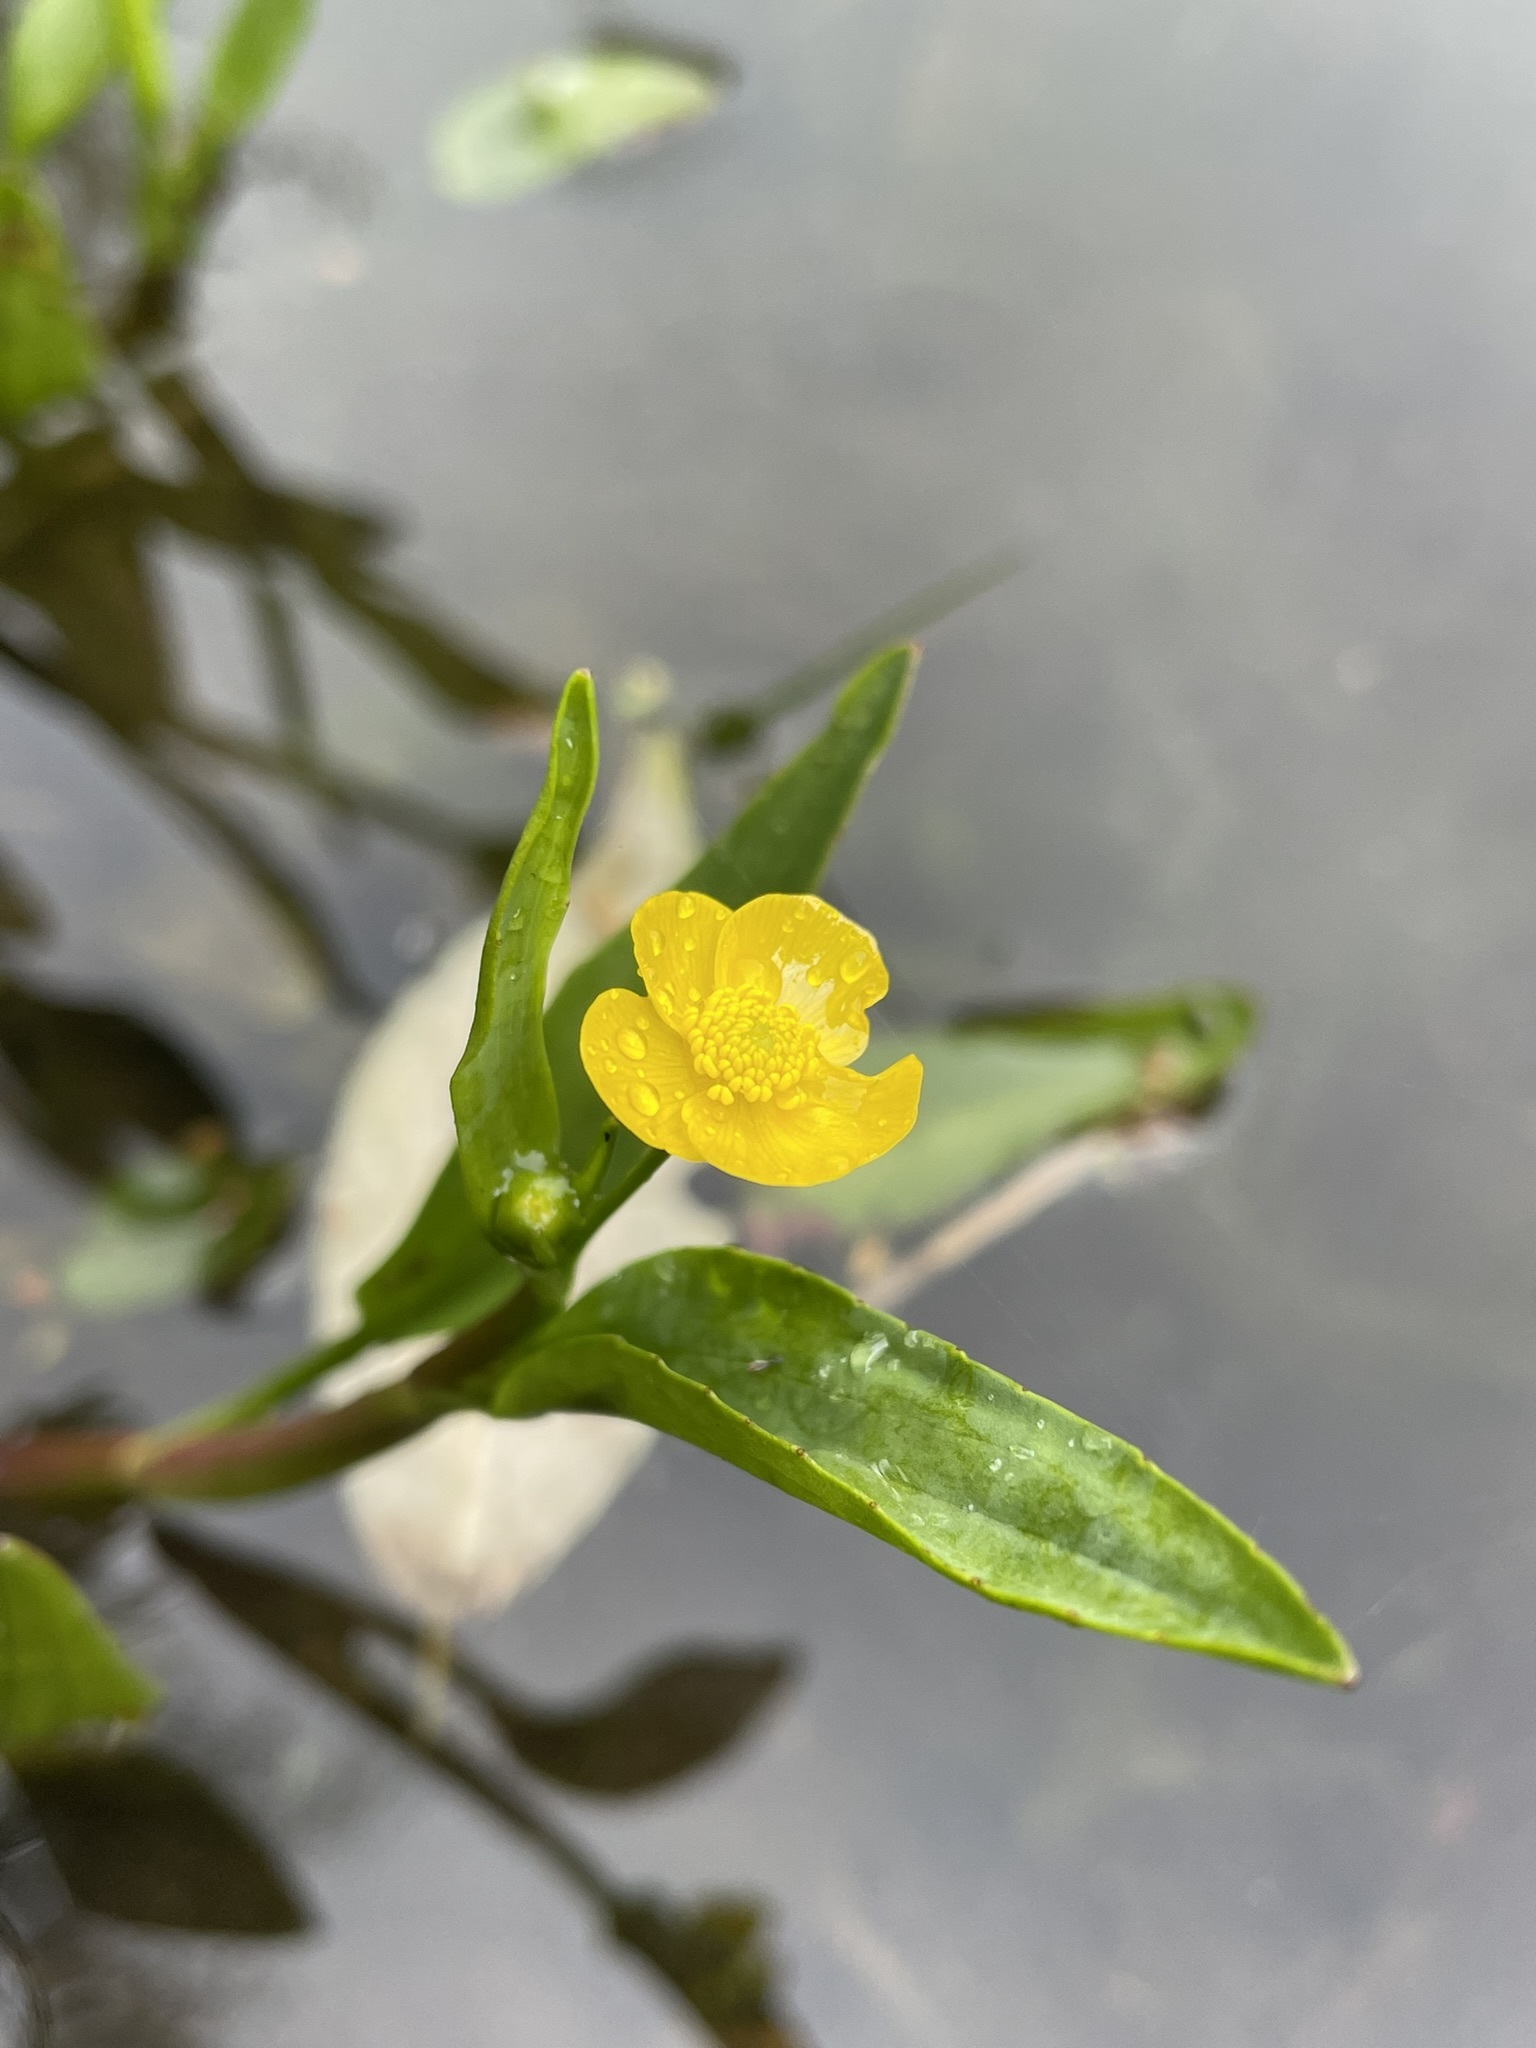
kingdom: Plantae
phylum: Tracheophyta
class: Magnoliopsida
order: Ranunculales
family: Ranunculaceae
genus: Ranunculus
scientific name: Ranunculus flammula
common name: Lesser spearwort
